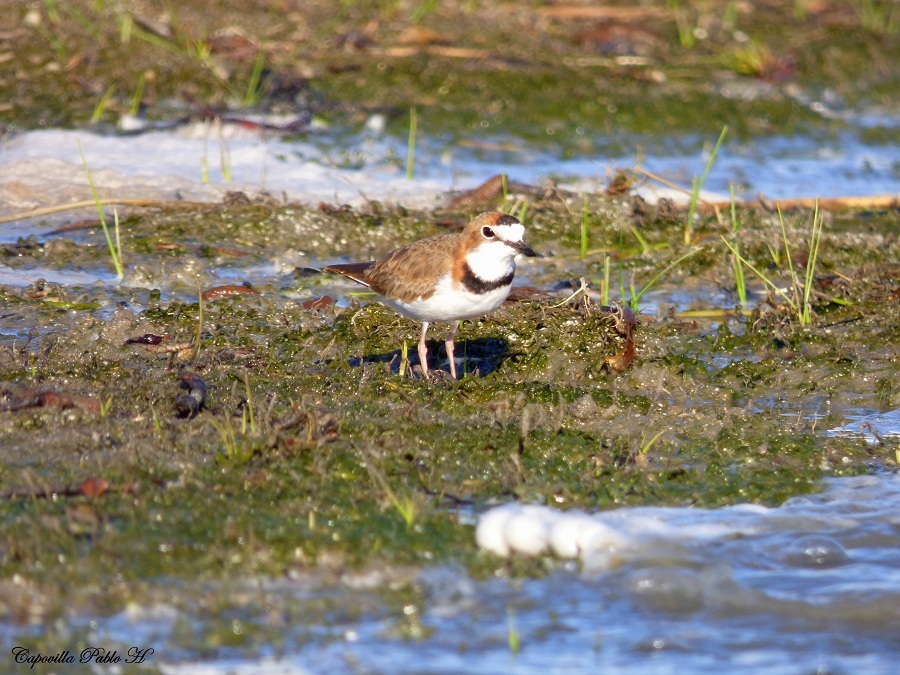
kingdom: Animalia
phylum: Chordata
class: Aves
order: Charadriiformes
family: Charadriidae
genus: Anarhynchus
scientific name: Anarhynchus
